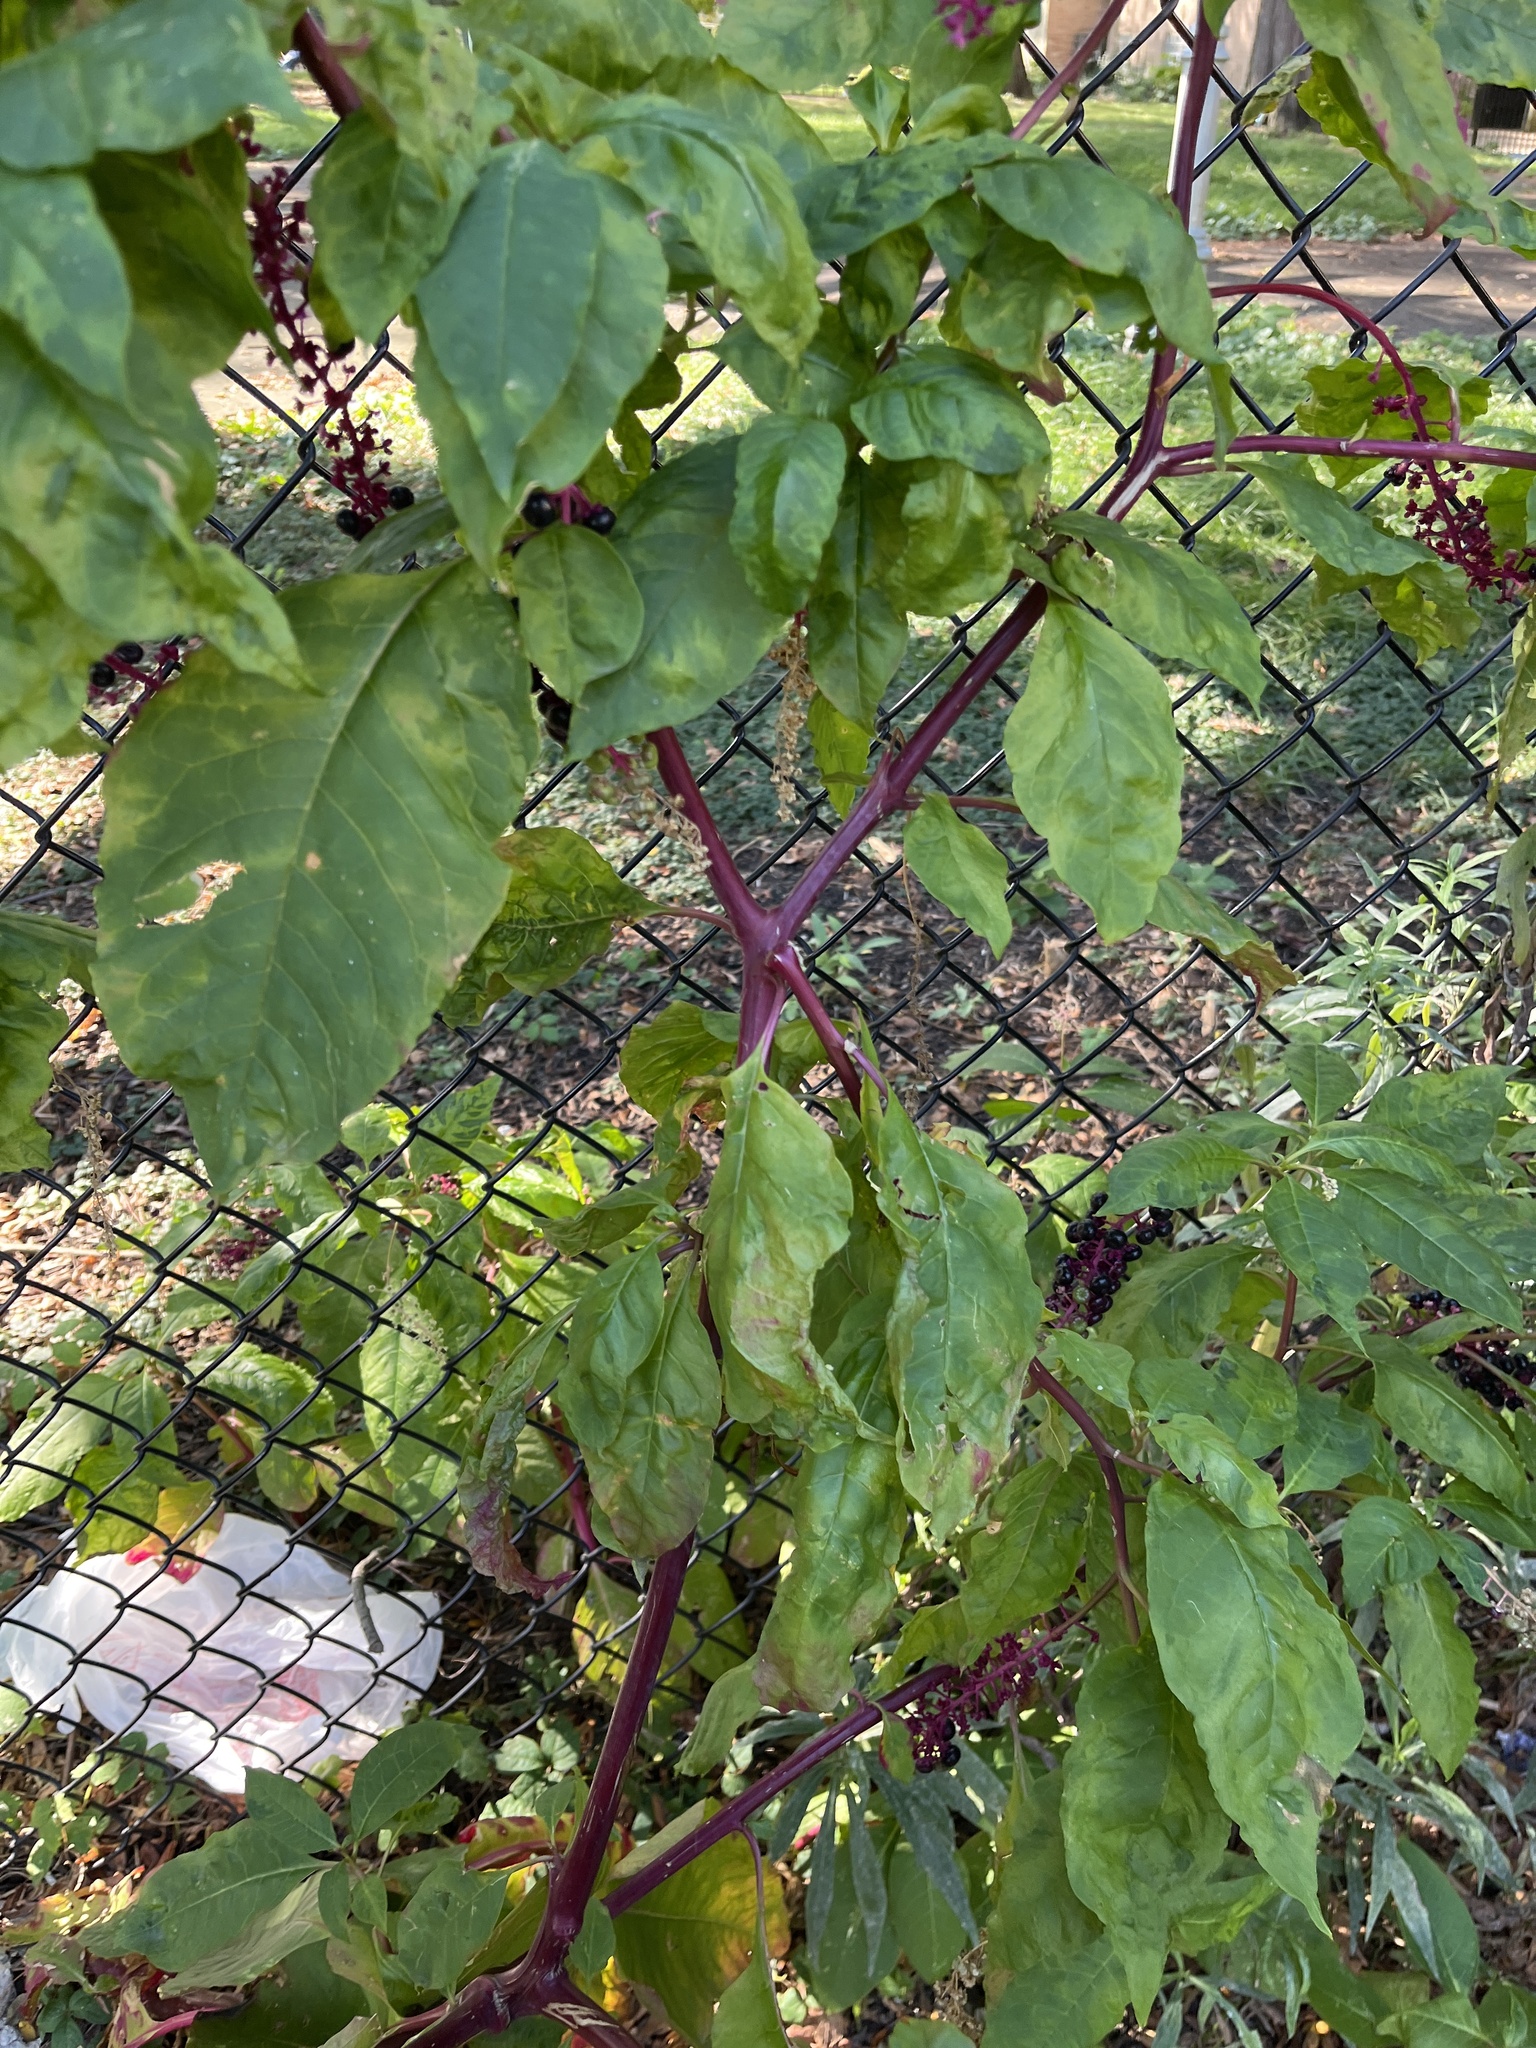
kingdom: Plantae
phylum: Tracheophyta
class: Magnoliopsida
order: Caryophyllales
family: Phytolaccaceae
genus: Phytolacca
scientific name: Phytolacca americana
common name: American pokeweed
